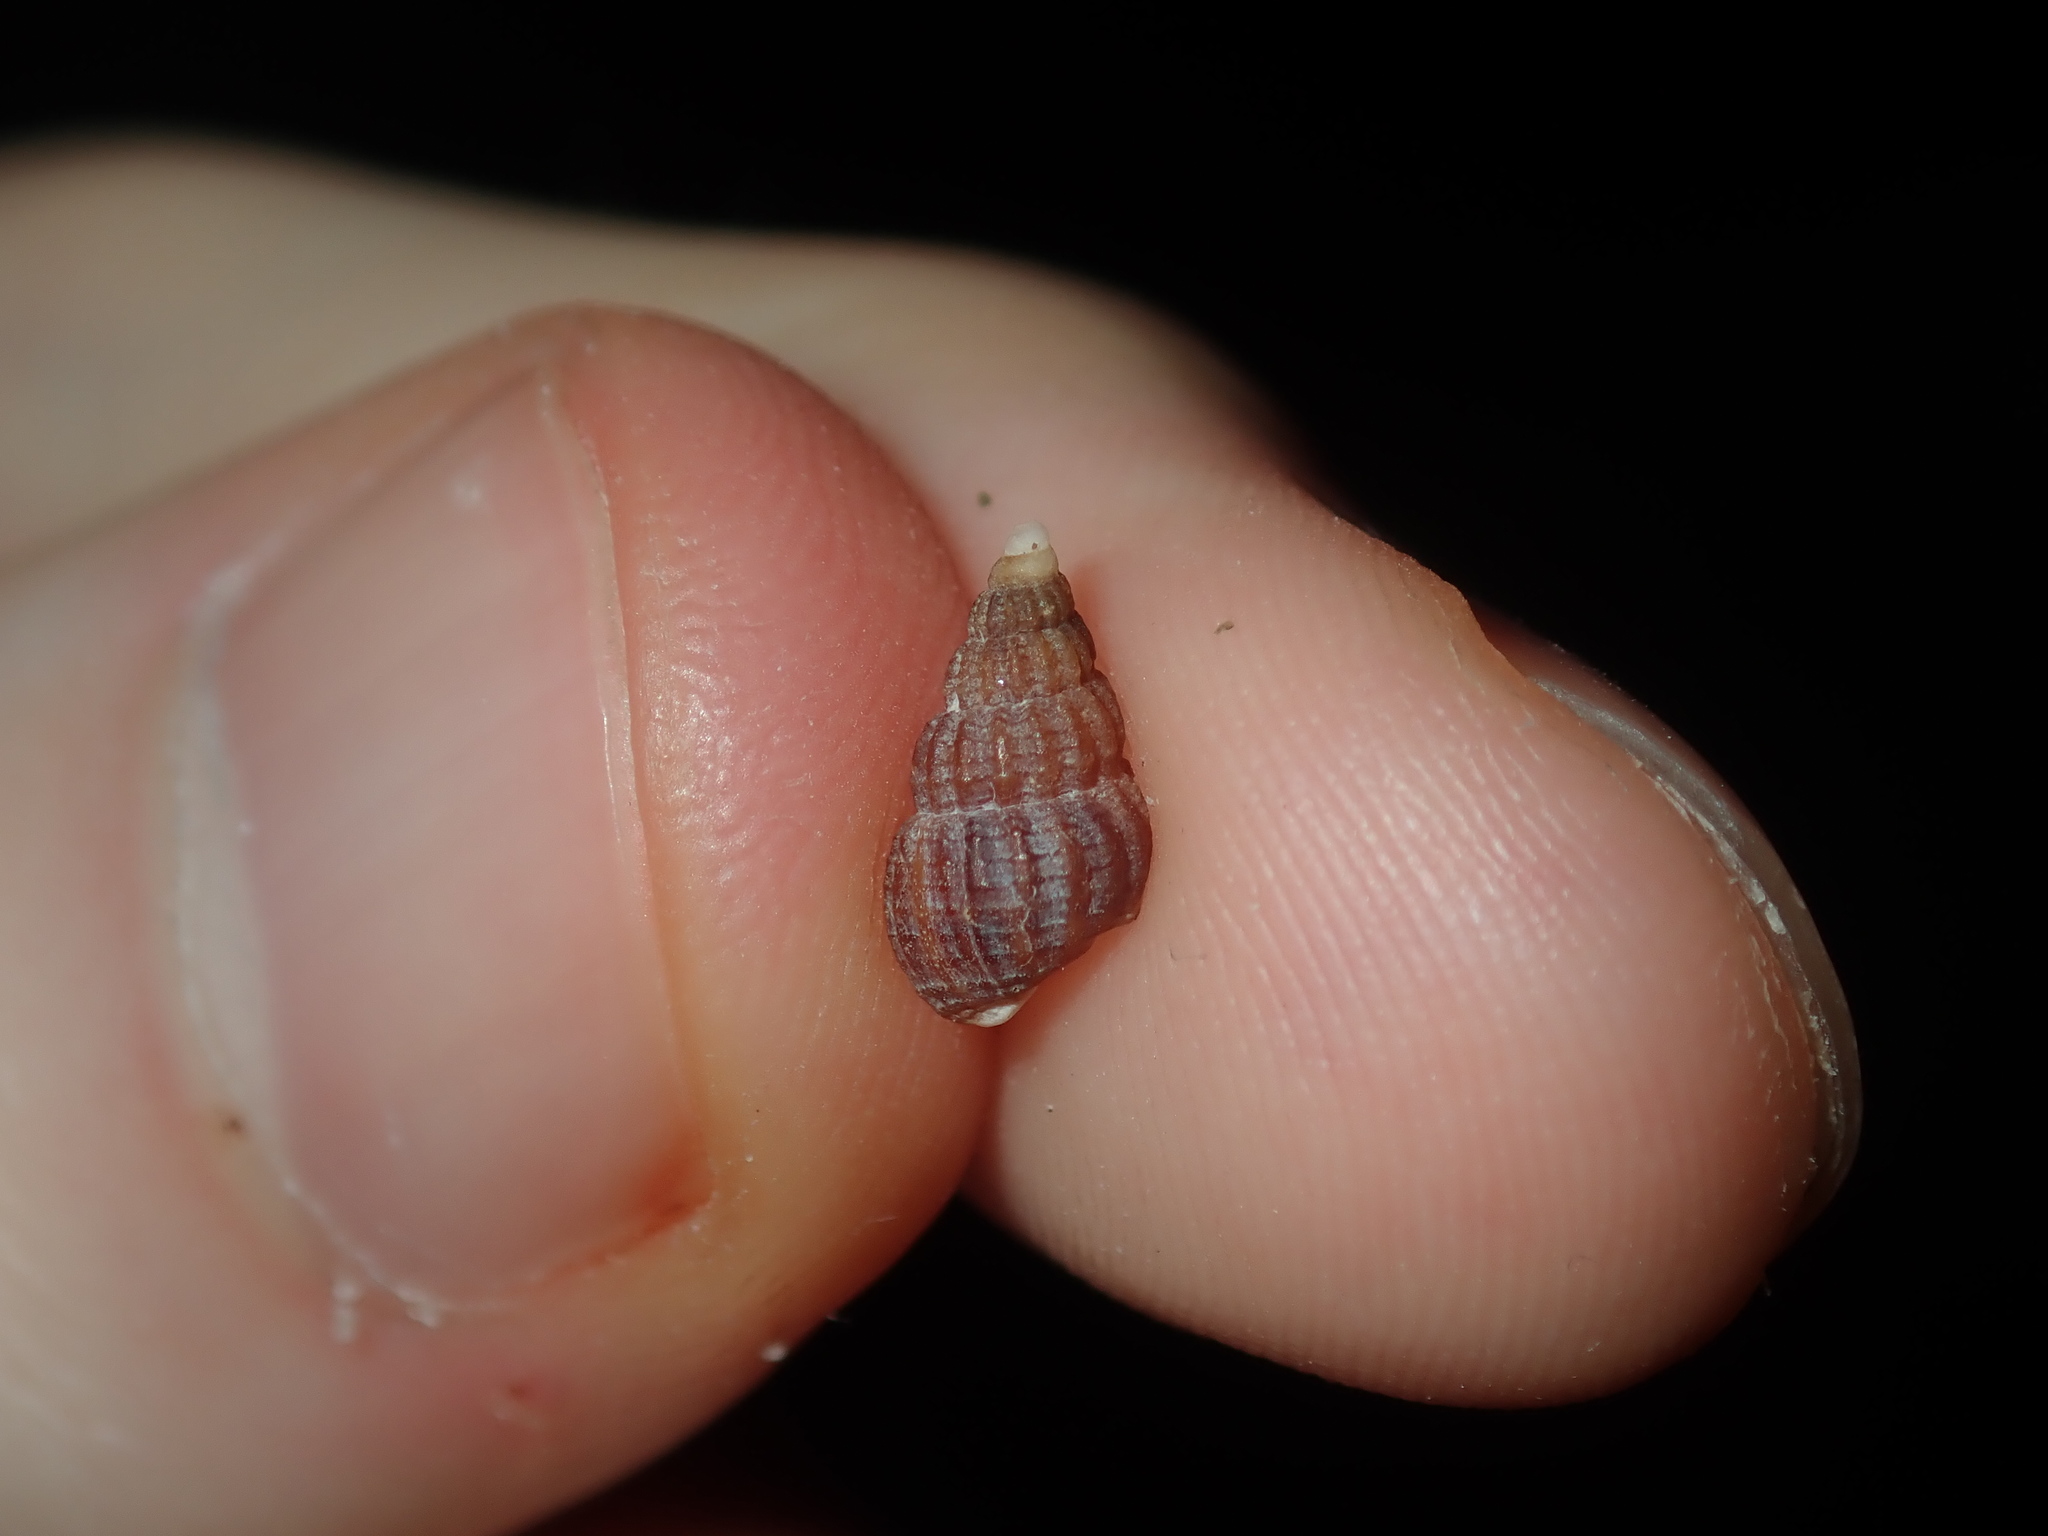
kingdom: Animalia
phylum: Mollusca
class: Gastropoda
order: Neogastropoda
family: Nassariidae
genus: Reticunassa
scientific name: Reticunassa paupera
